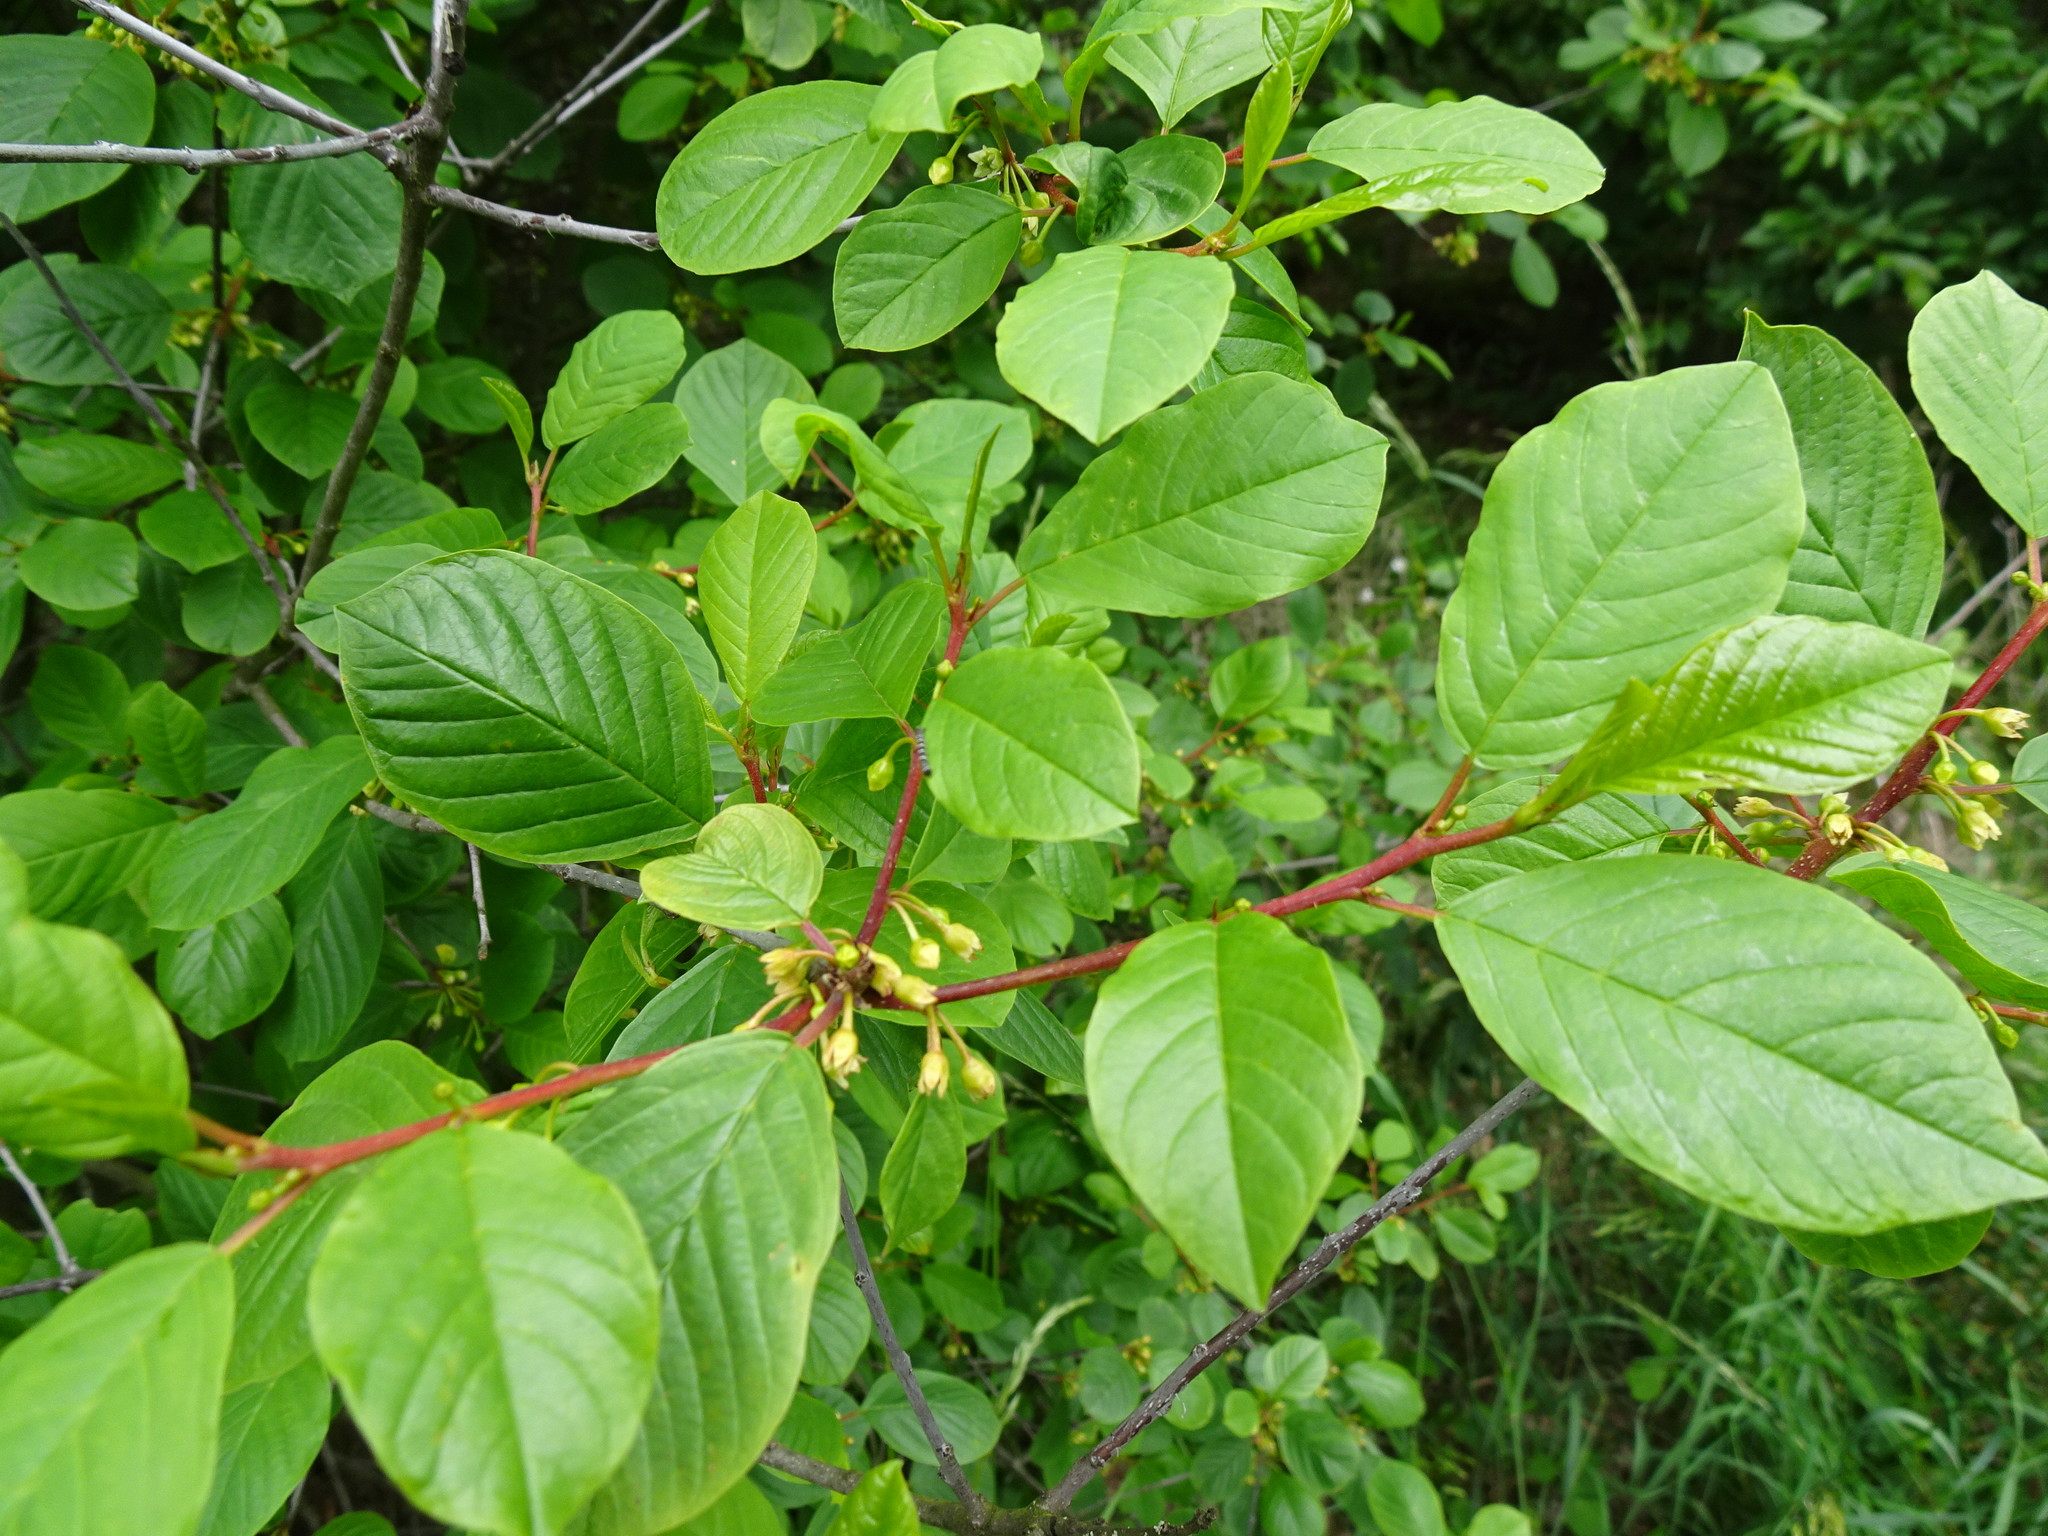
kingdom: Plantae
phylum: Tracheophyta
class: Magnoliopsida
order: Rosales
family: Rhamnaceae
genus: Frangula
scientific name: Frangula alnus
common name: Alder buckthorn
